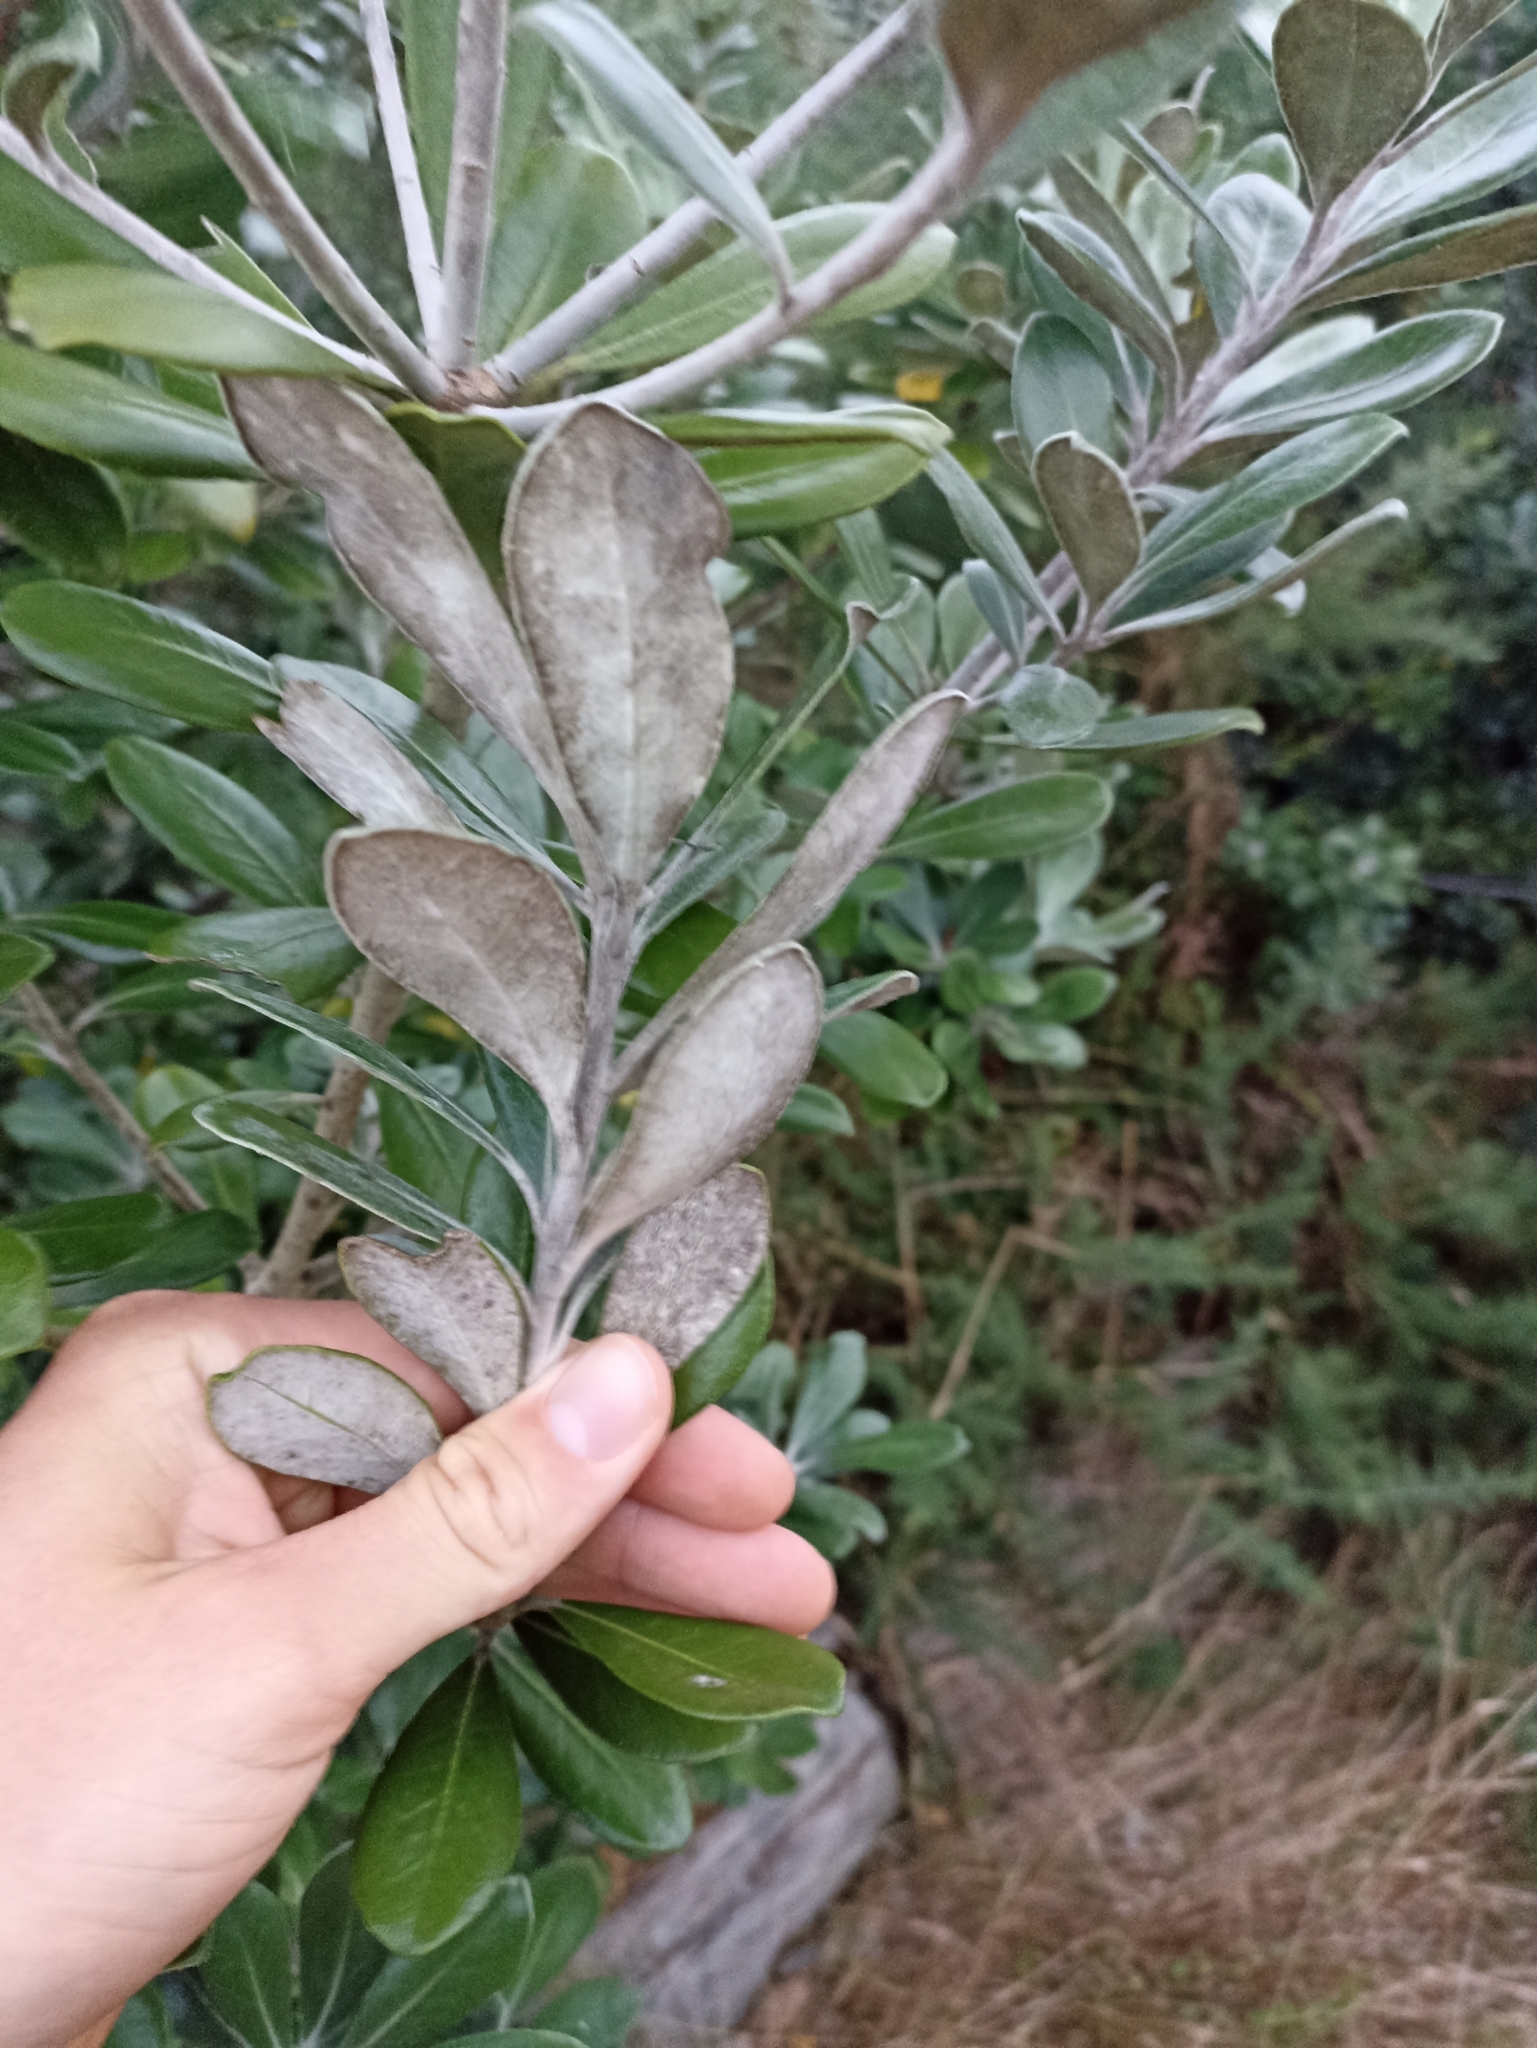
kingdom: Plantae
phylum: Tracheophyta
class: Magnoliopsida
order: Apiales
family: Pittosporaceae
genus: Pittosporum
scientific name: Pittosporum crassifolium
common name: Karo
